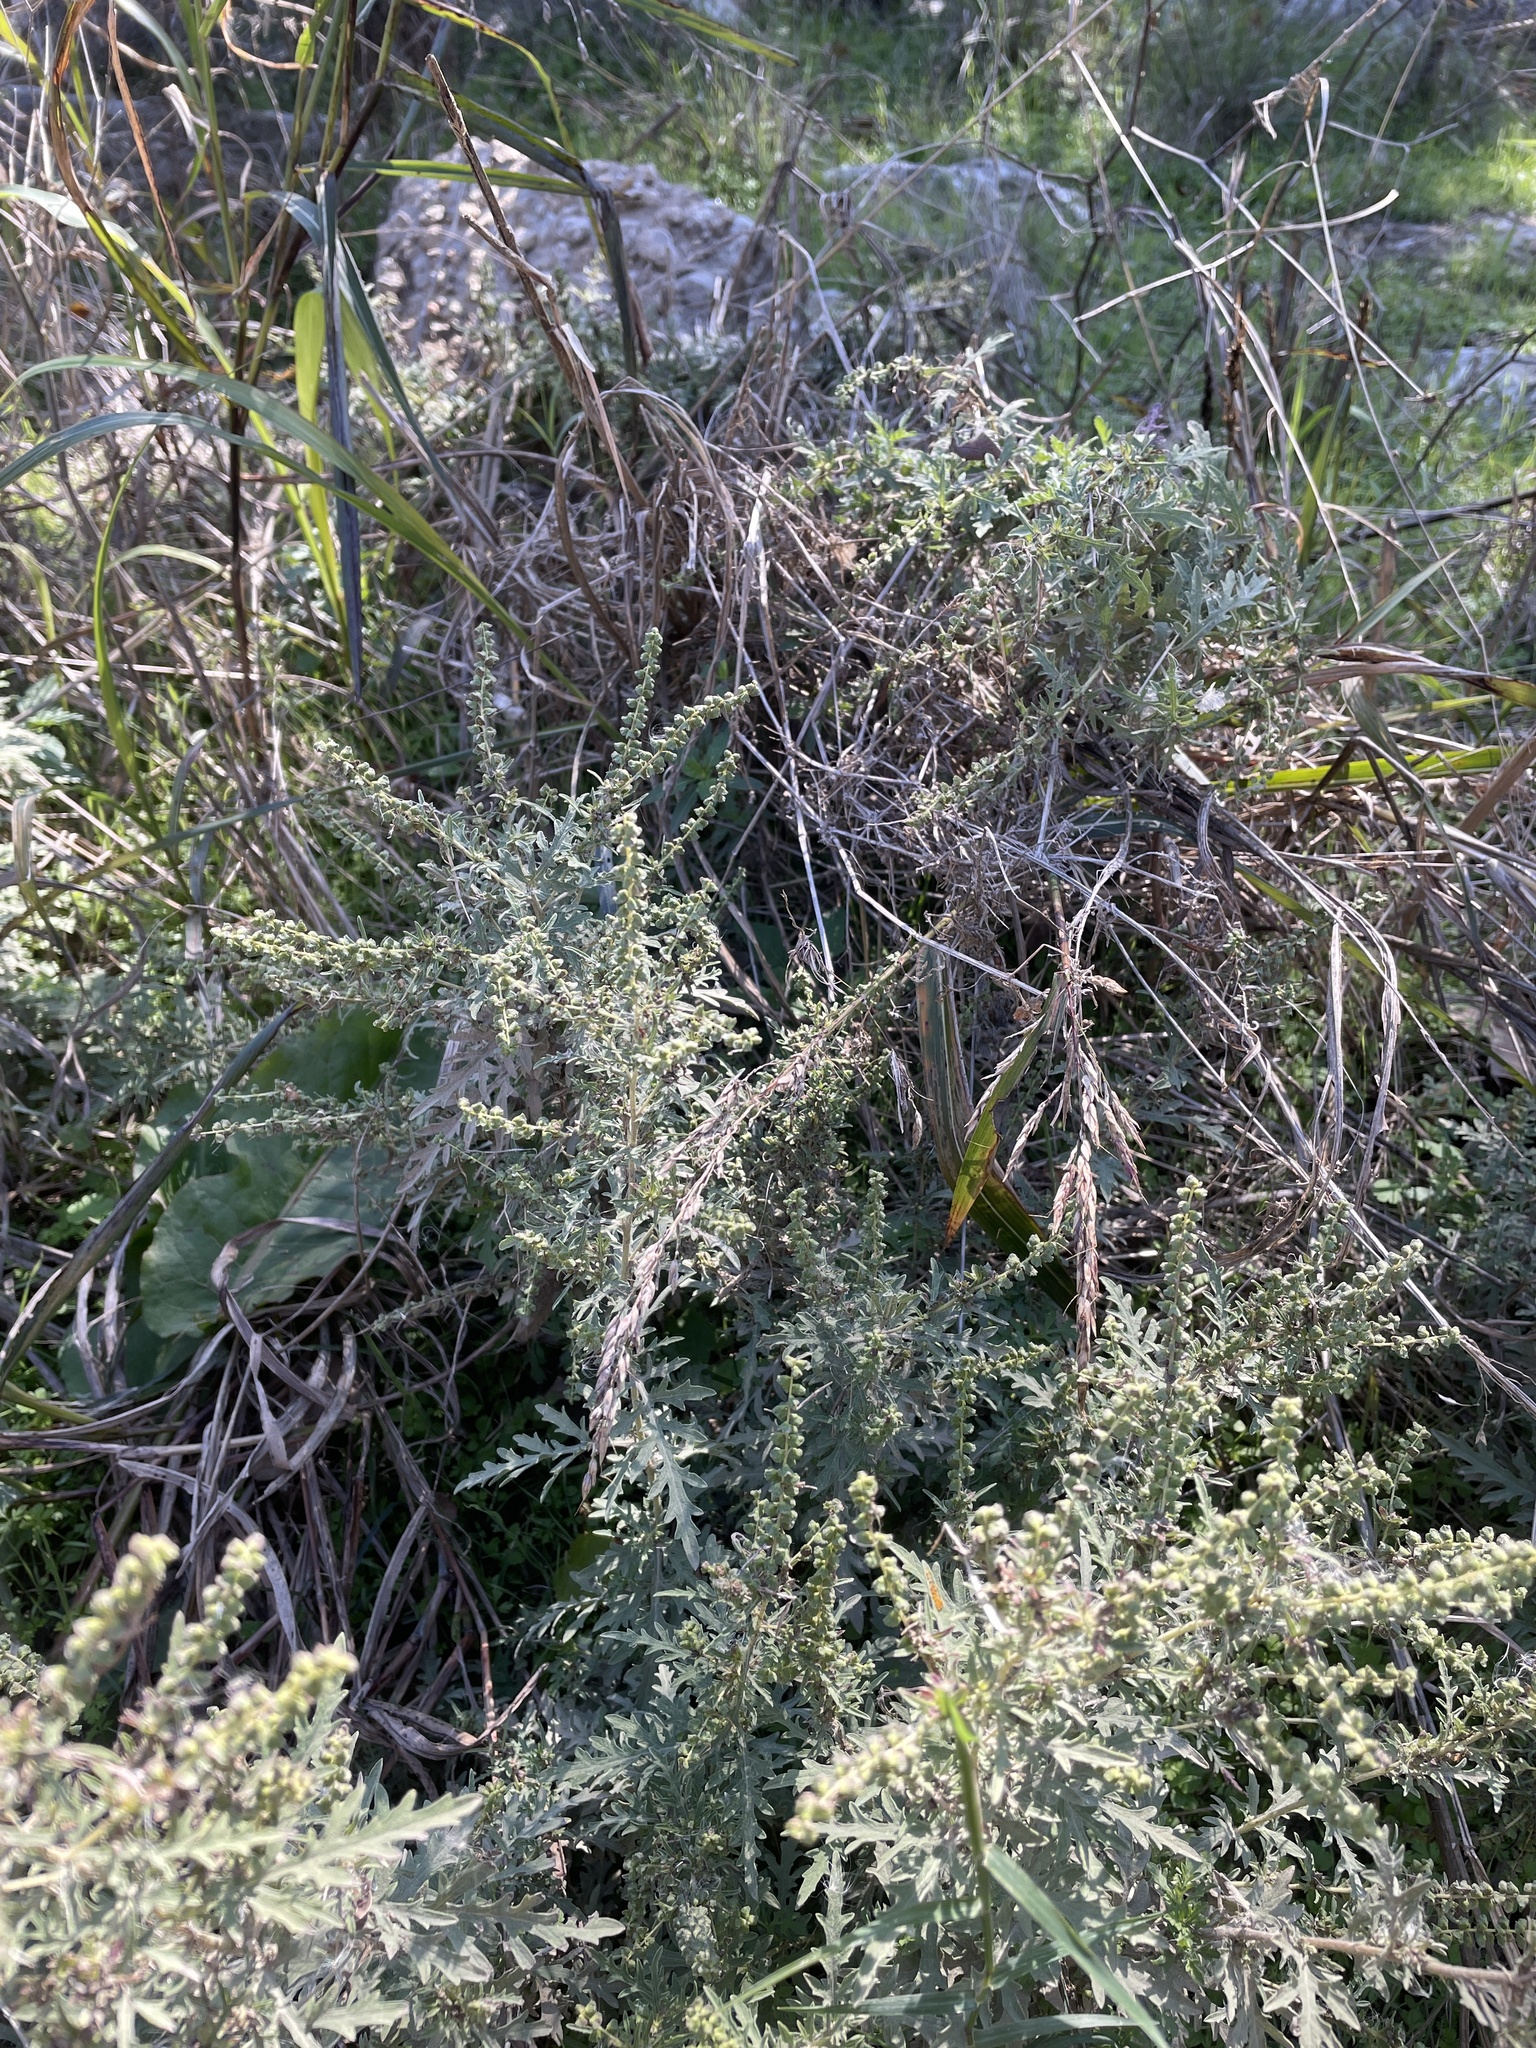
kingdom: Plantae
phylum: Tracheophyta
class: Magnoliopsida
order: Asterales
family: Asteraceae
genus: Ambrosia
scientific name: Ambrosia psilostachya
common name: Perennial ragweed
